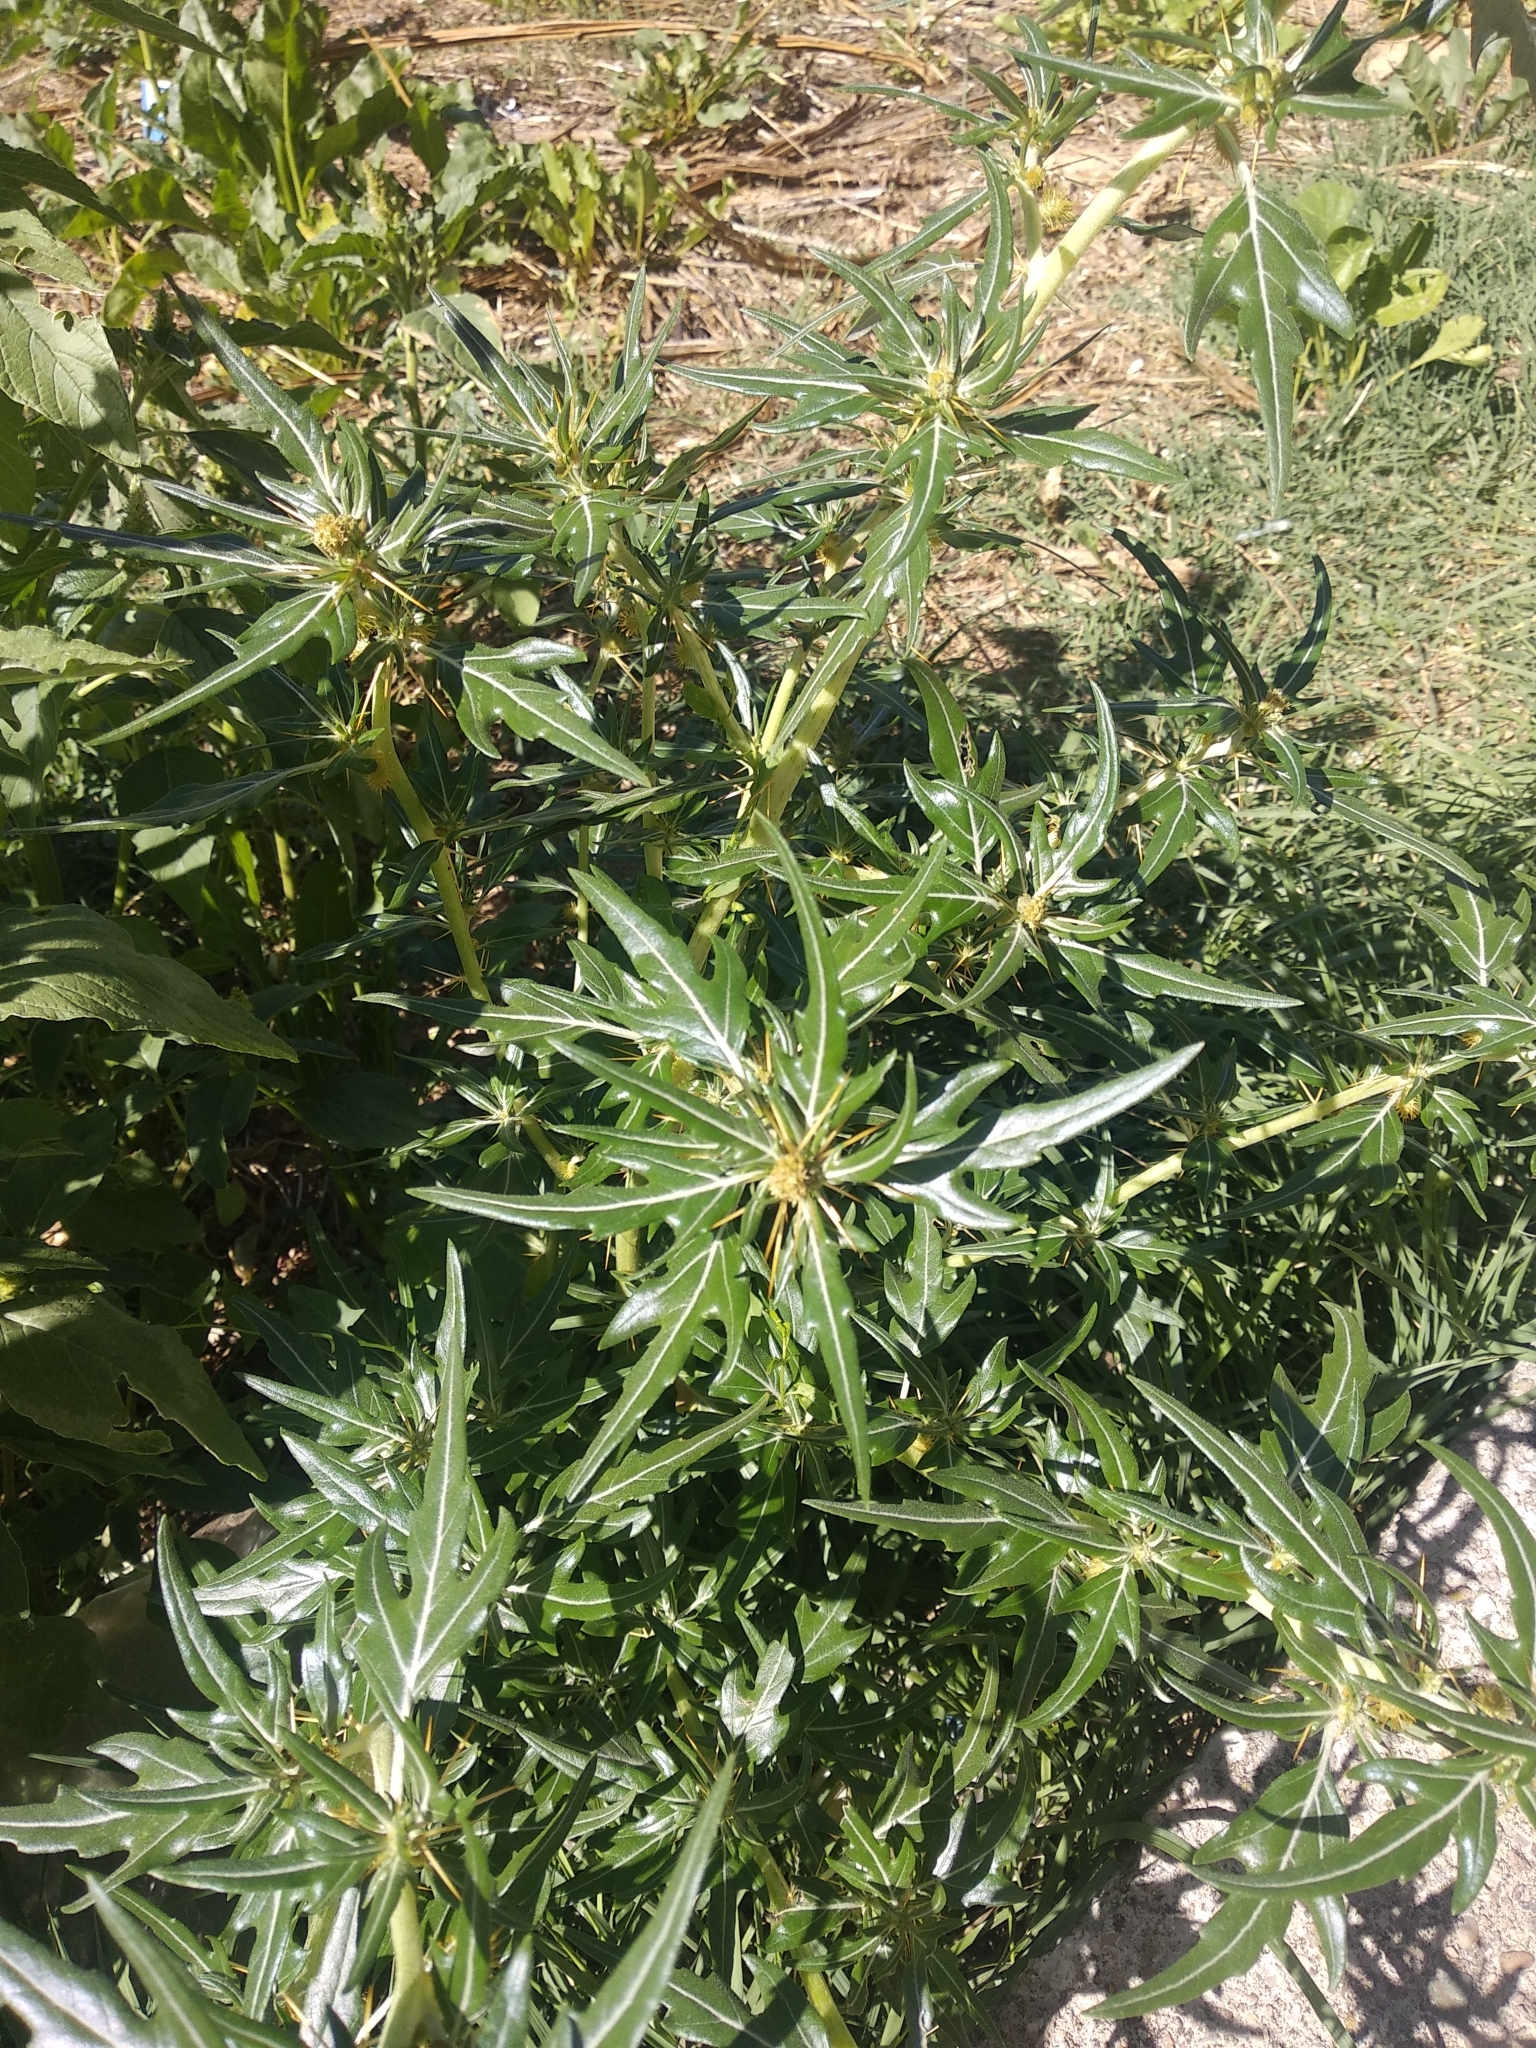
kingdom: Plantae
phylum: Tracheophyta
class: Magnoliopsida
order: Asterales
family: Asteraceae
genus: Xanthium
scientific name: Xanthium spinosum
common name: Spiny cocklebur
